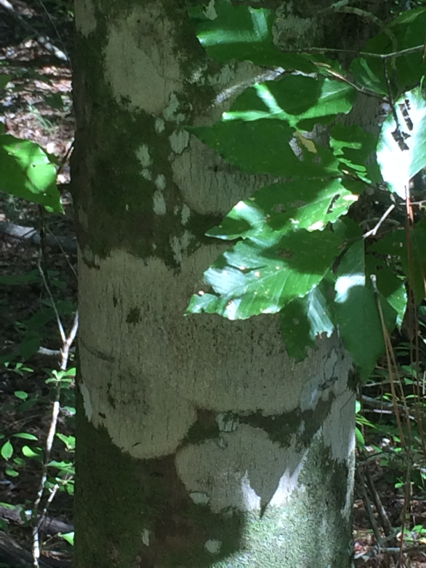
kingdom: Plantae
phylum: Tracheophyta
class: Magnoliopsida
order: Fagales
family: Fagaceae
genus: Fagus
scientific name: Fagus grandifolia
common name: American beech
